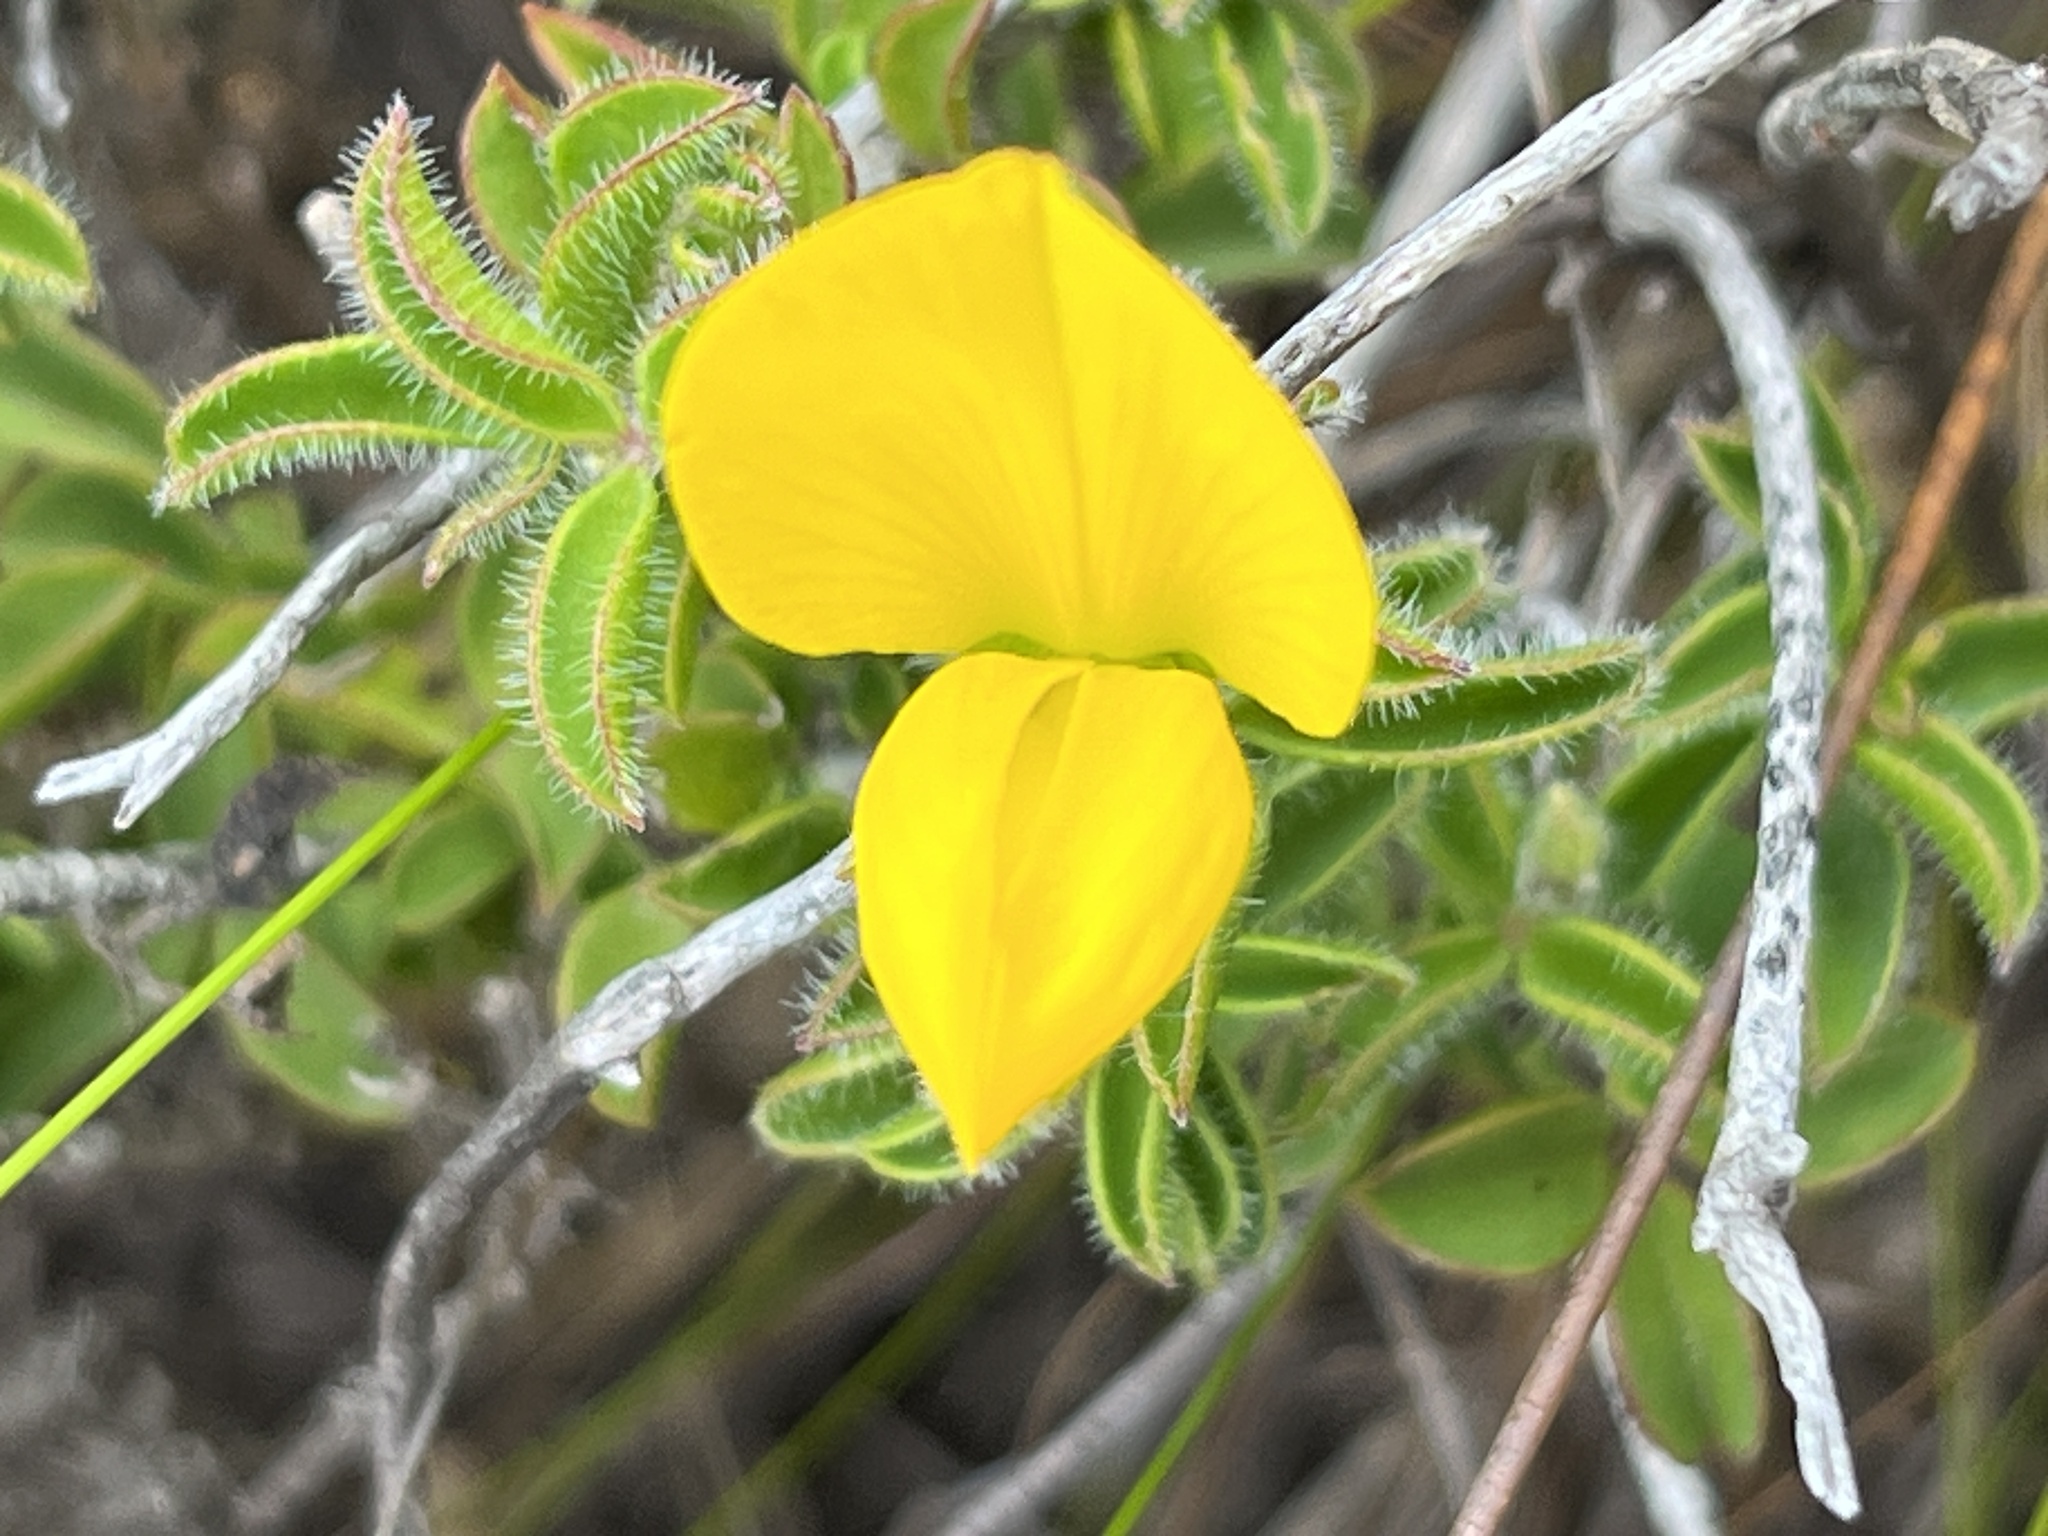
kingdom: Plantae
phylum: Tracheophyta
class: Magnoliopsida
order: Fabales
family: Fabaceae
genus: Argyrolobium
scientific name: Argyrolobium pachyphyllum
